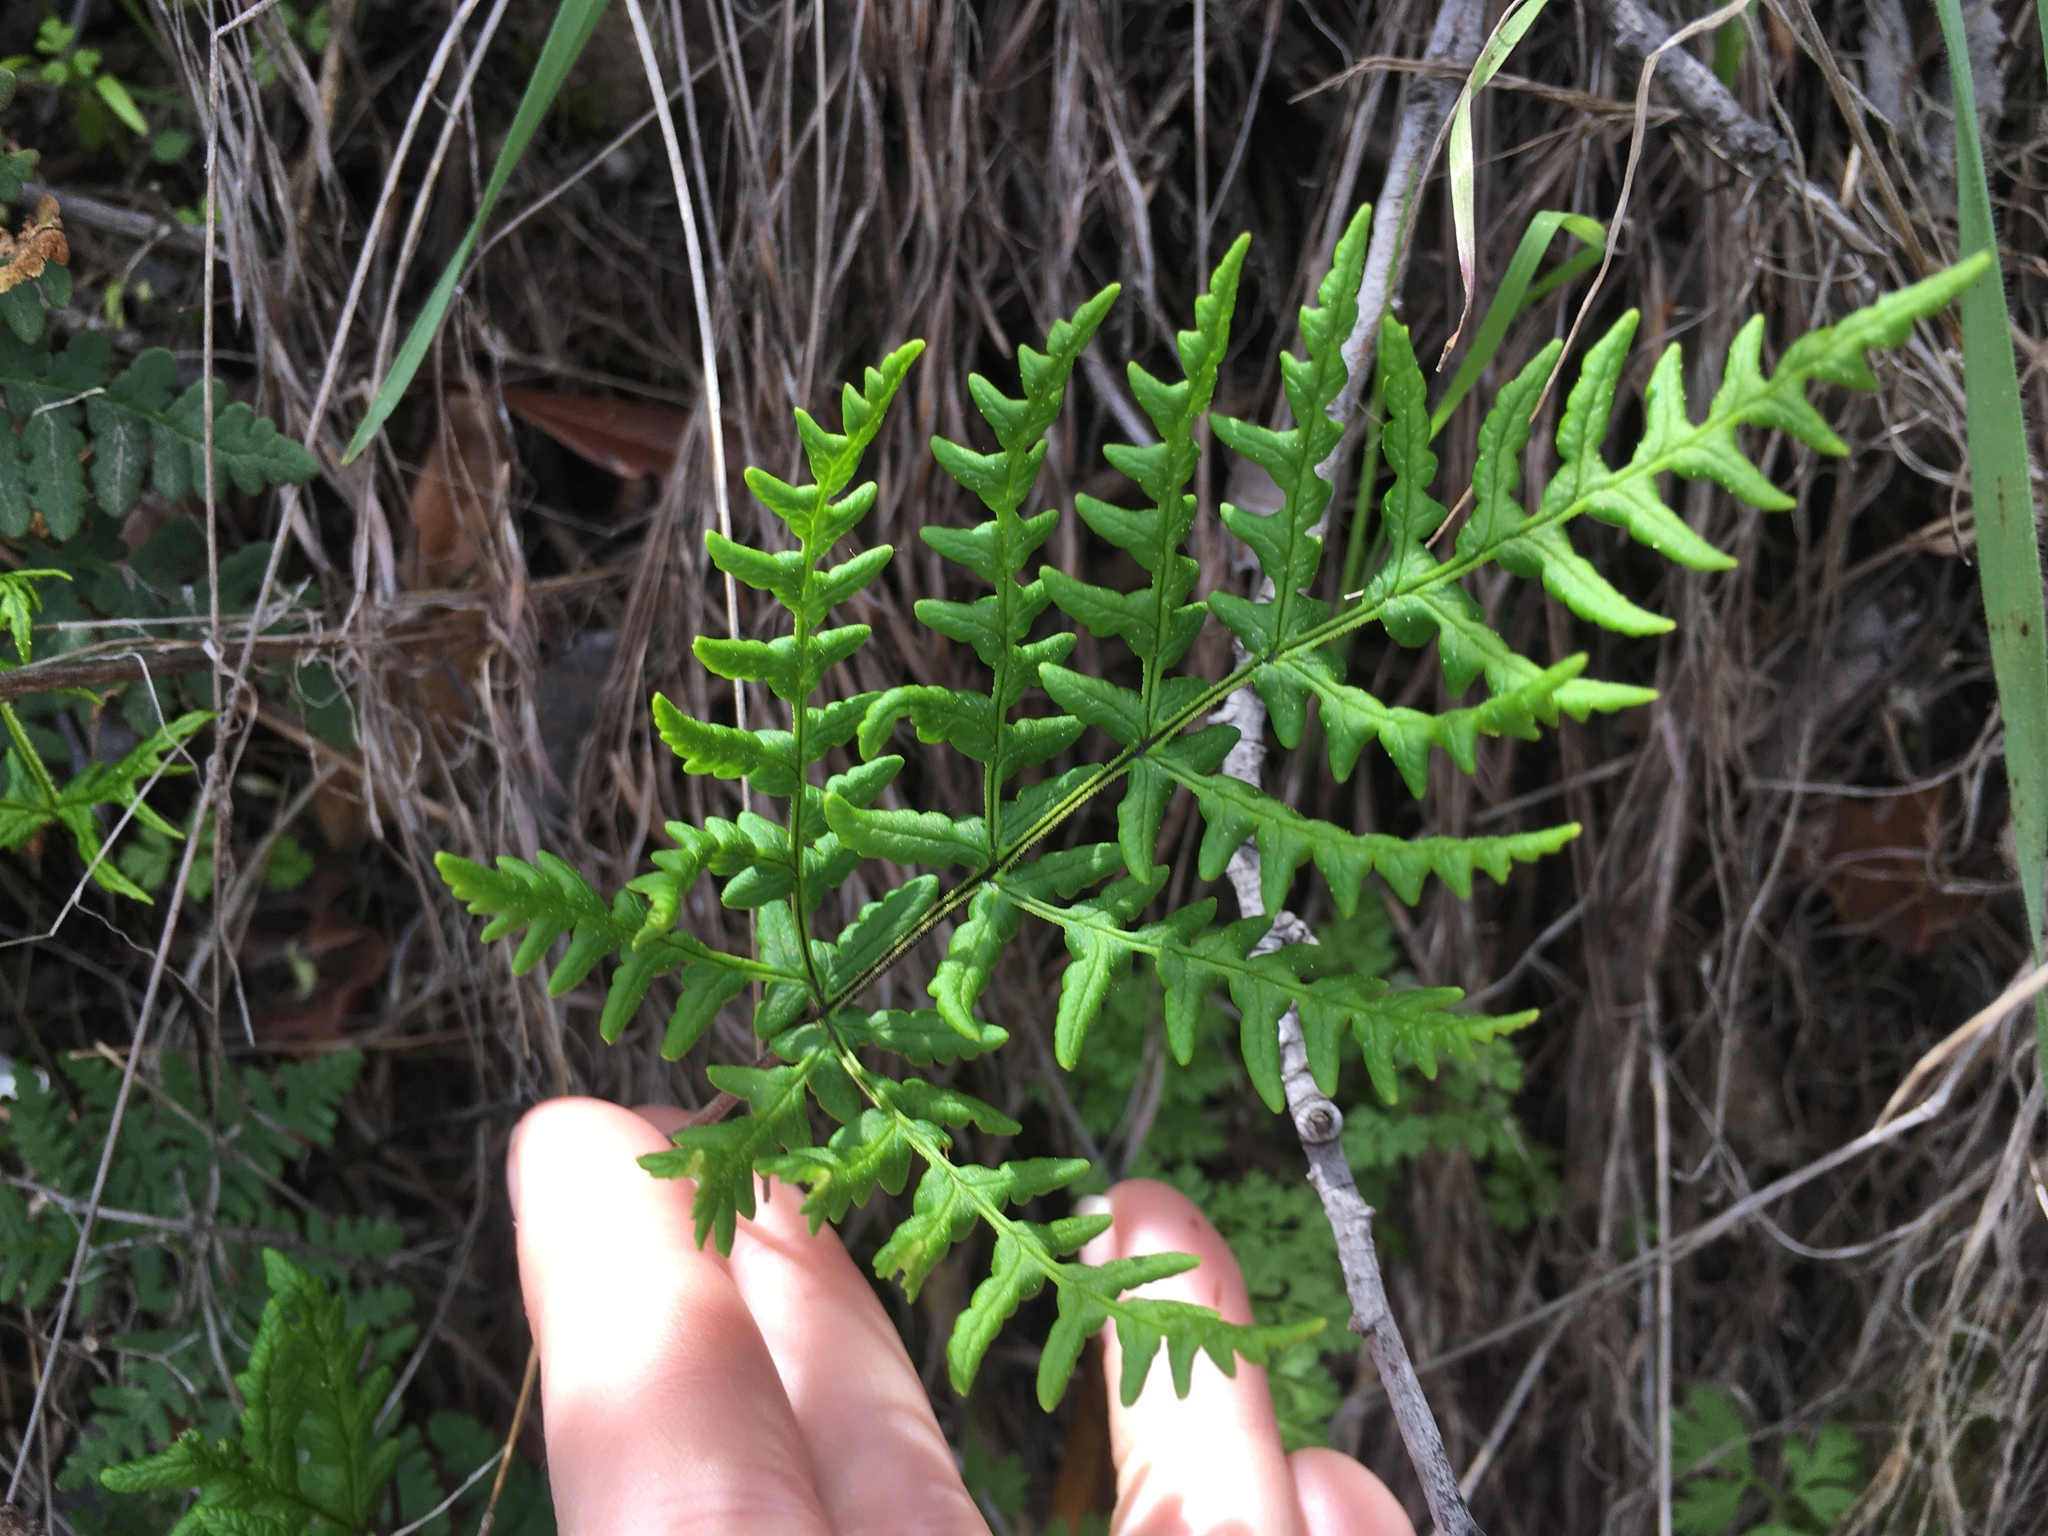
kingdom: Plantae
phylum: Tracheophyta
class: Polypodiopsida
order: Polypodiales
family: Pteridaceae
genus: Pentagramma
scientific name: Pentagramma triangularis
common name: Gold fern
